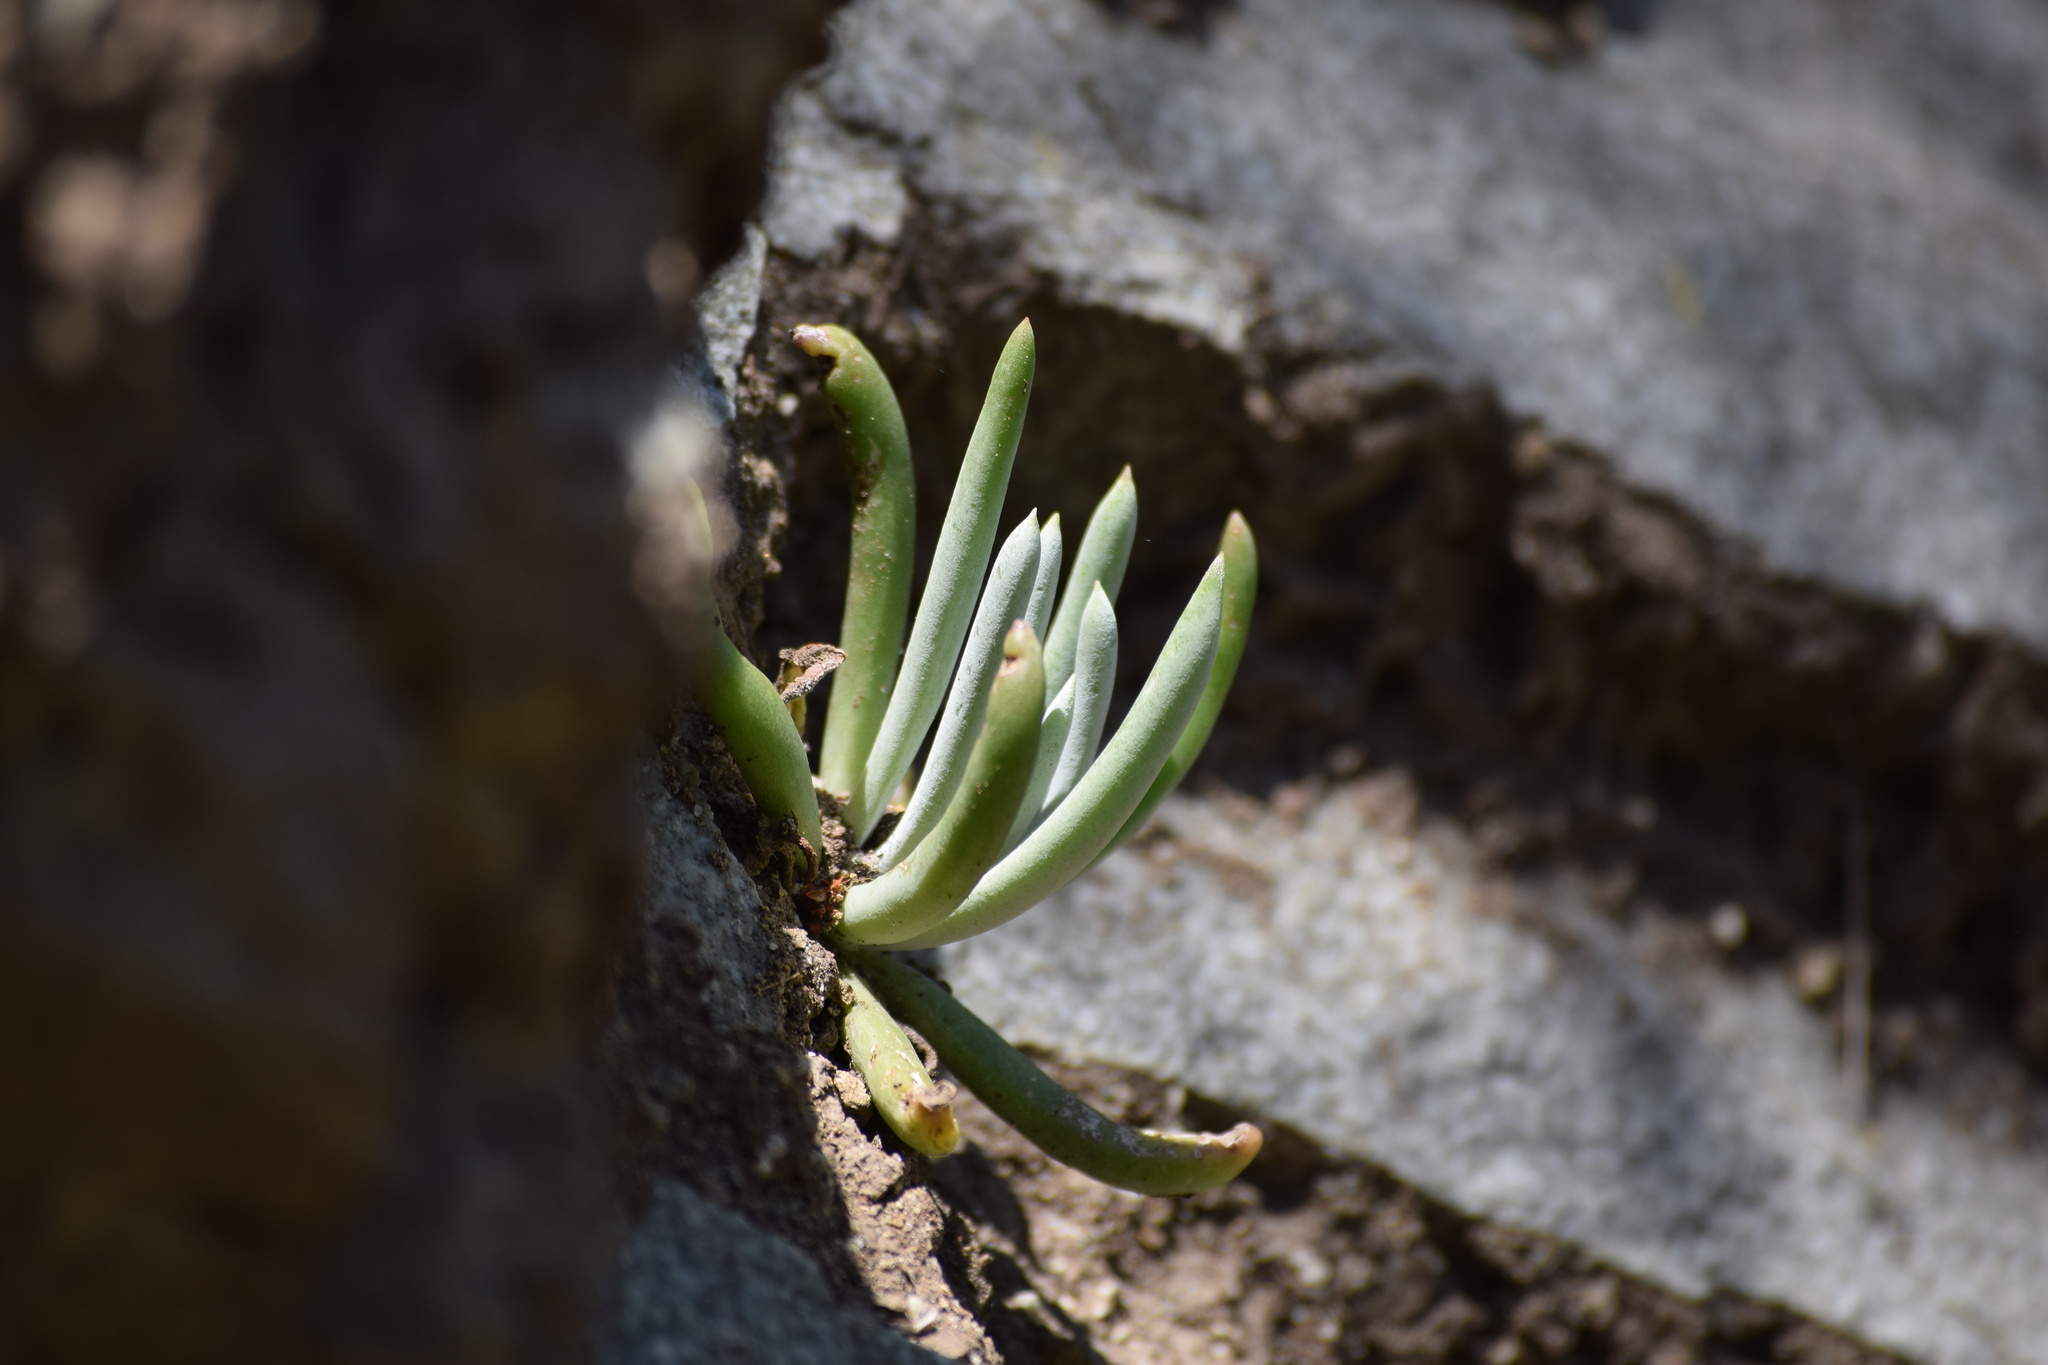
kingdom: Plantae
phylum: Tracheophyta
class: Magnoliopsida
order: Saxifragales
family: Crassulaceae
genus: Dudleya
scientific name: Dudleya densiflora
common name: San gabriel mountains dudleya
